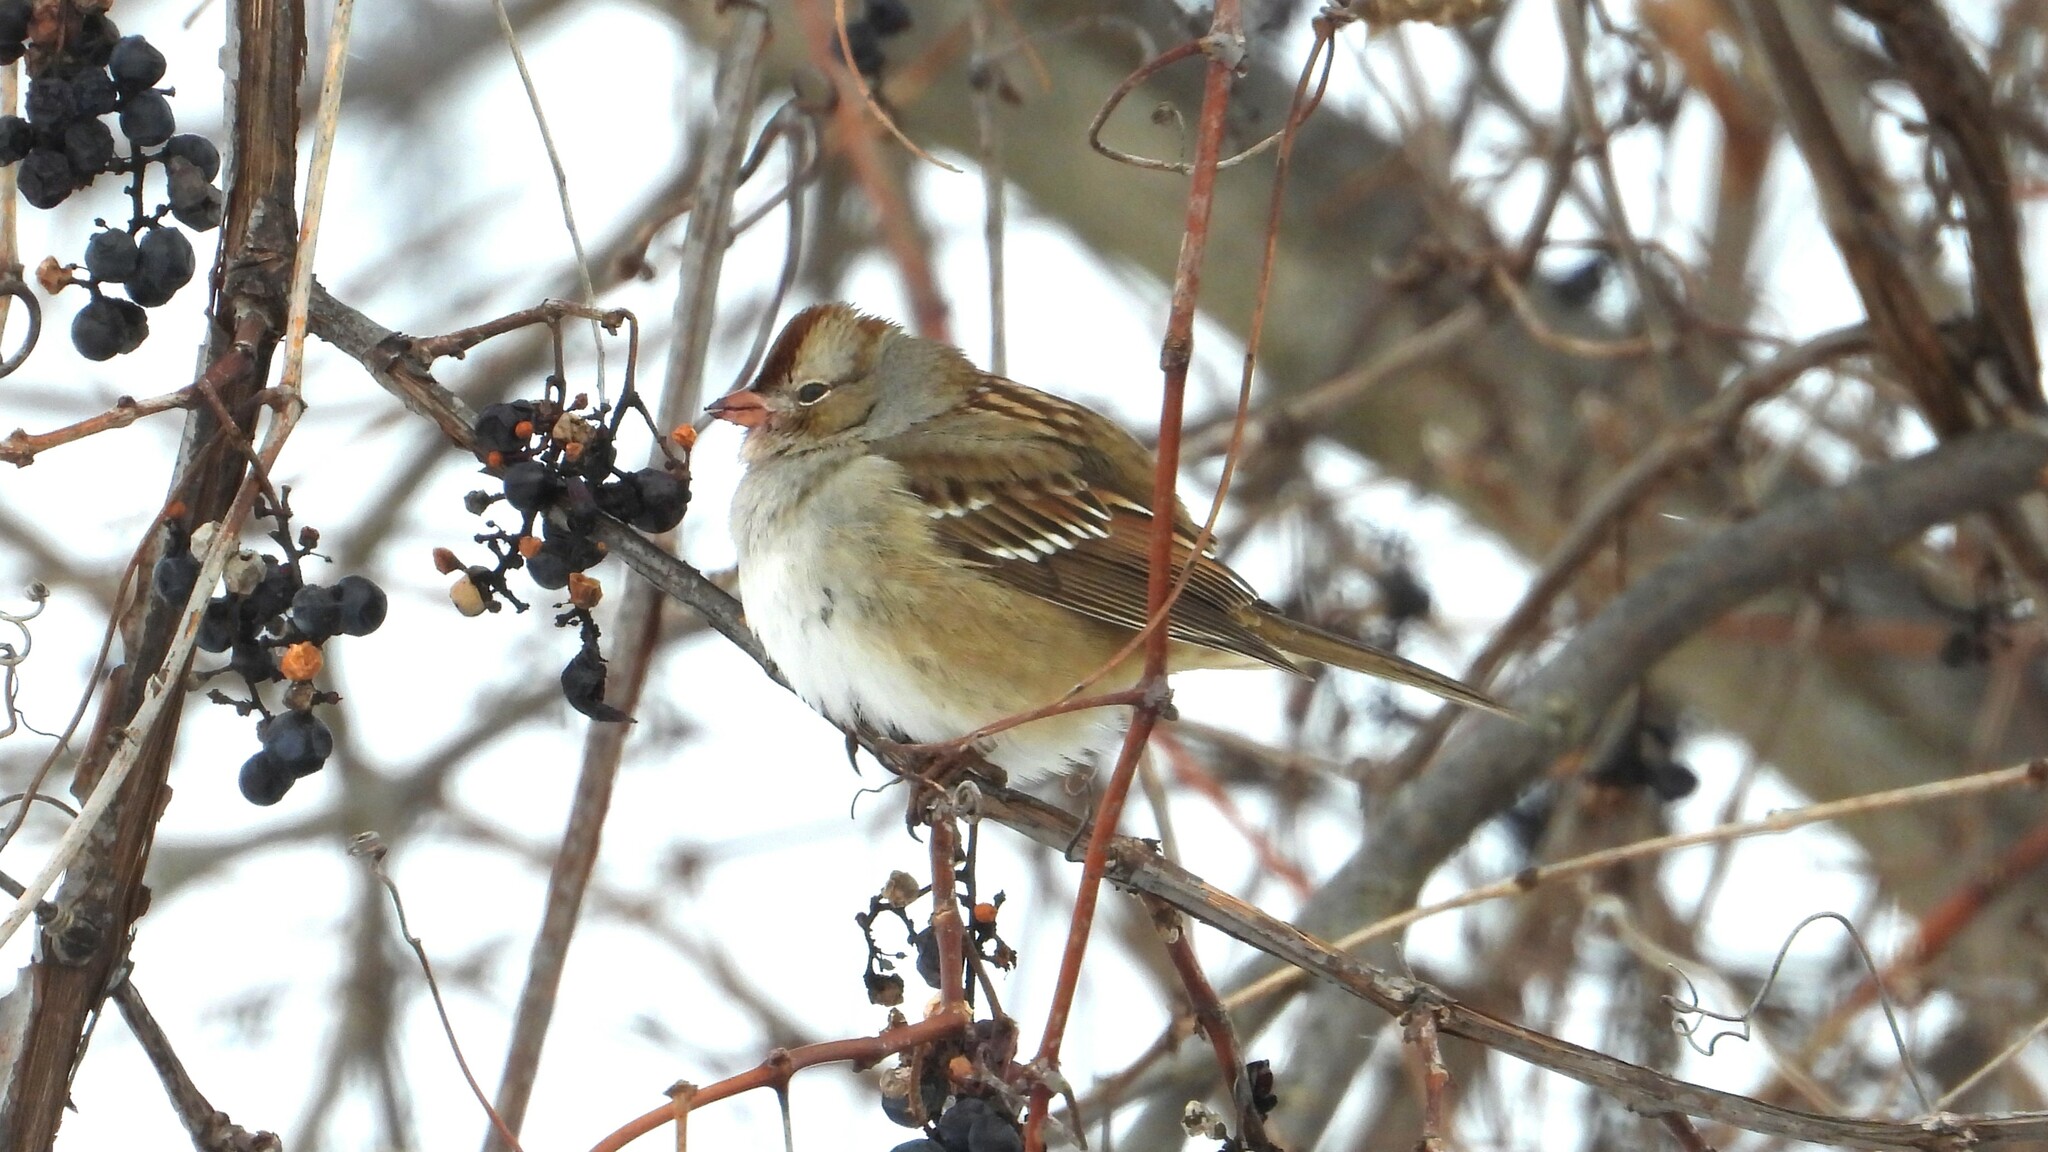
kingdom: Animalia
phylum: Chordata
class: Aves
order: Passeriformes
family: Passerellidae
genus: Zonotrichia
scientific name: Zonotrichia leucophrys
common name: White-crowned sparrow
